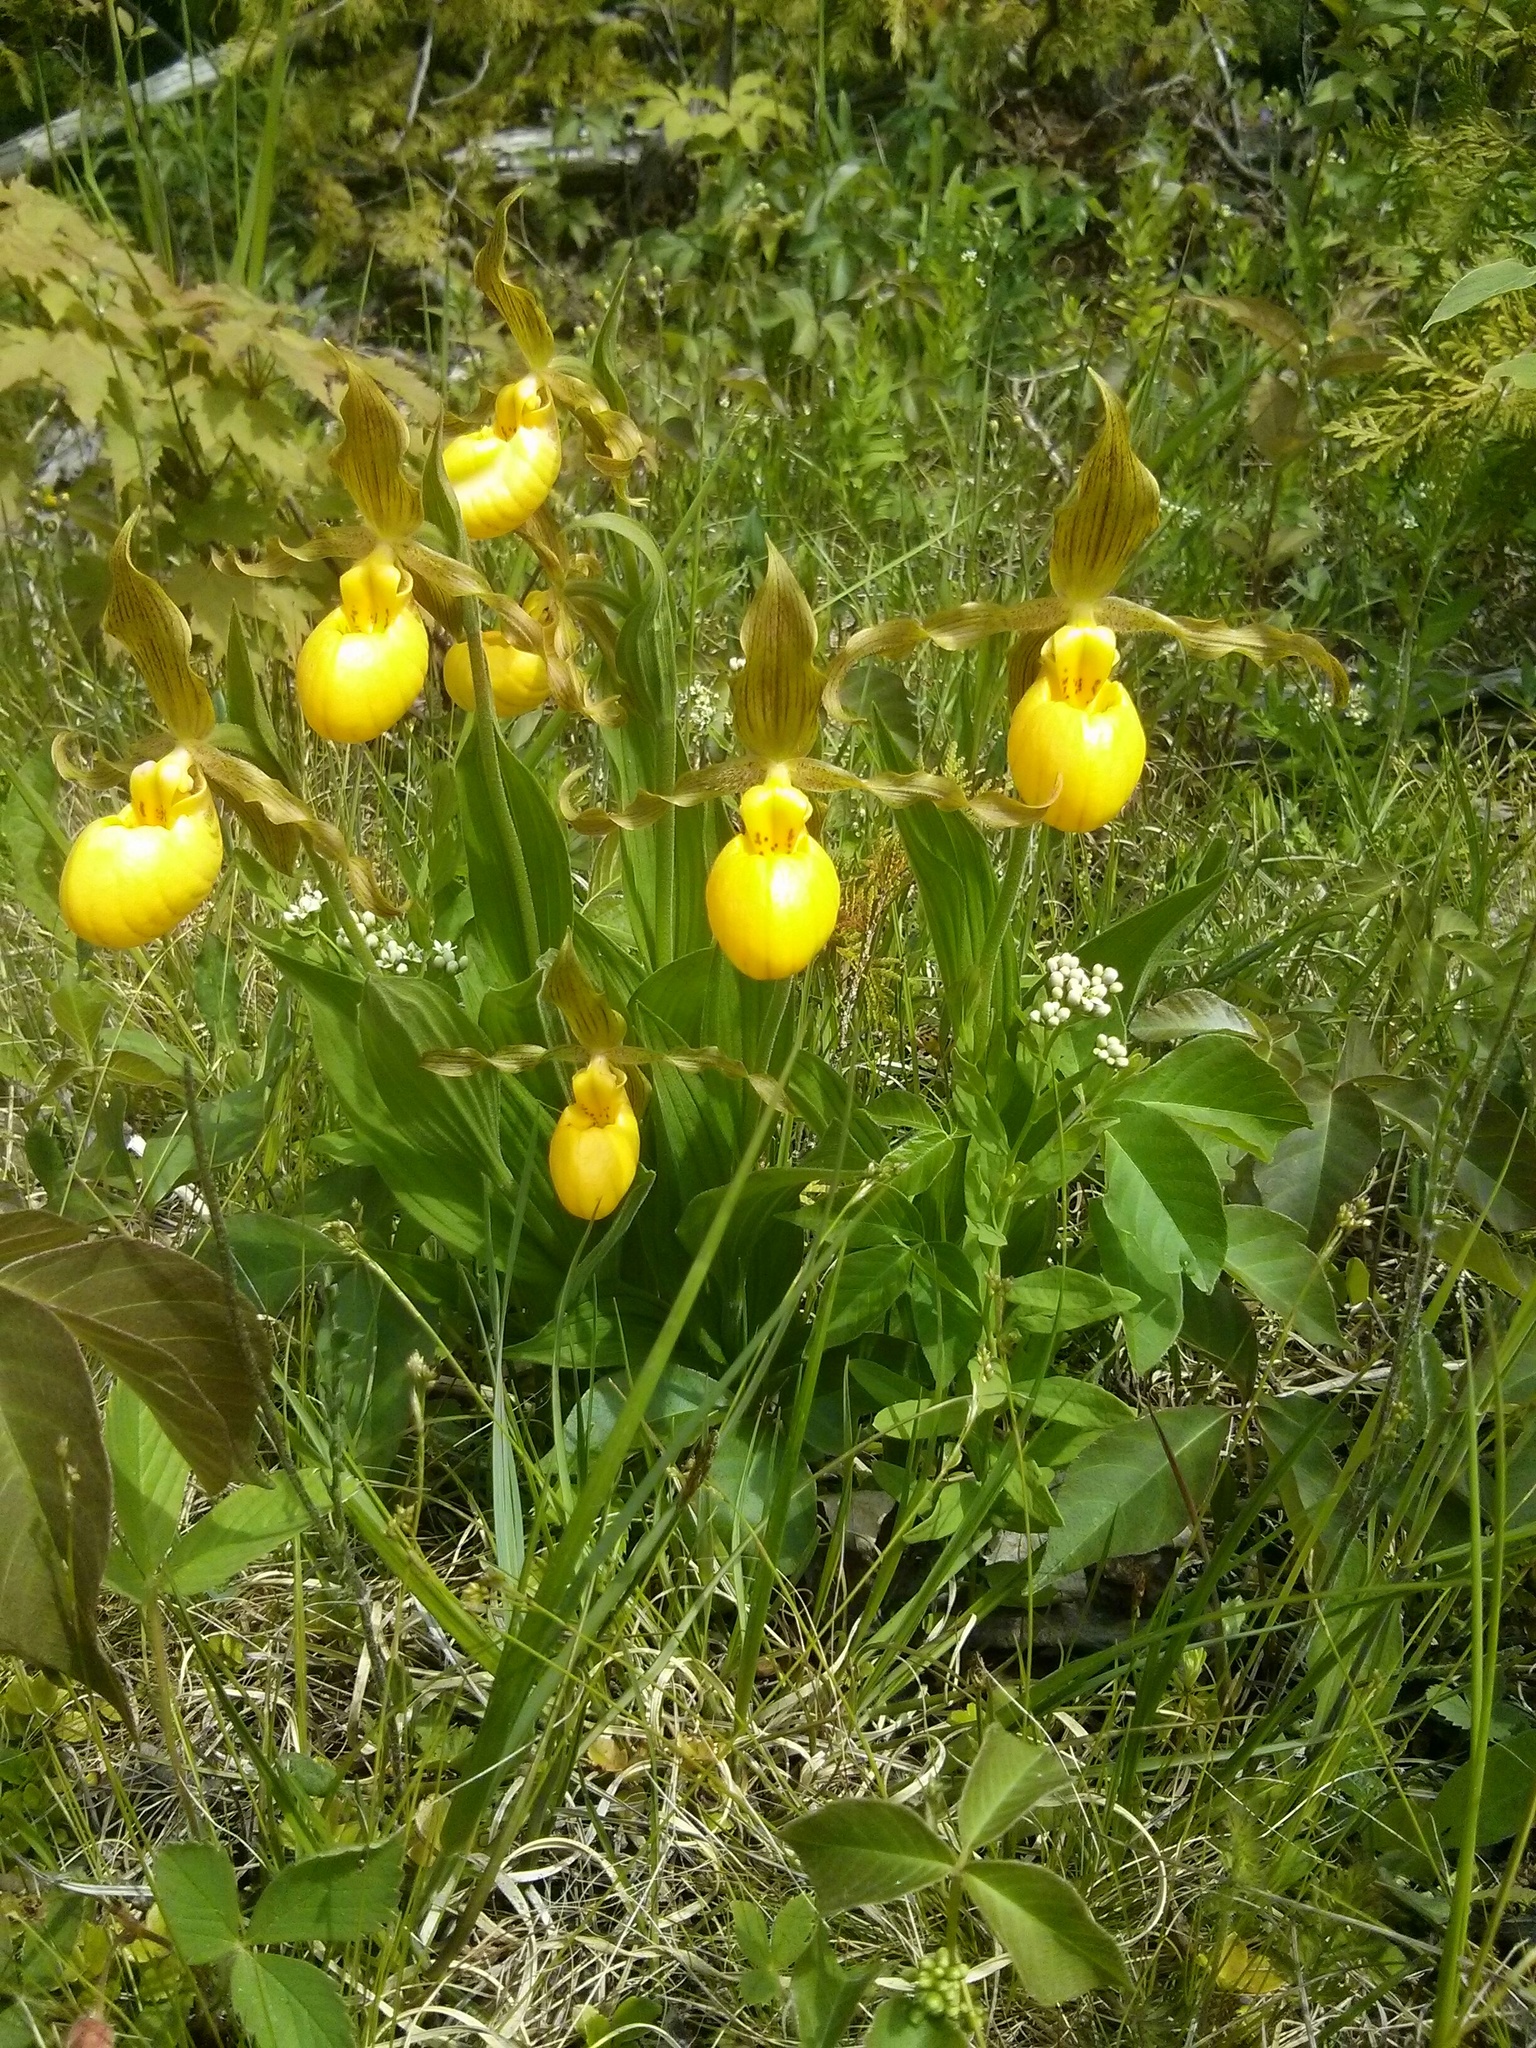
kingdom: Plantae
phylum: Tracheophyta
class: Liliopsida
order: Asparagales
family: Orchidaceae
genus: Cypripedium
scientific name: Cypripedium parviflorum
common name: American yellow lady's-slipper
